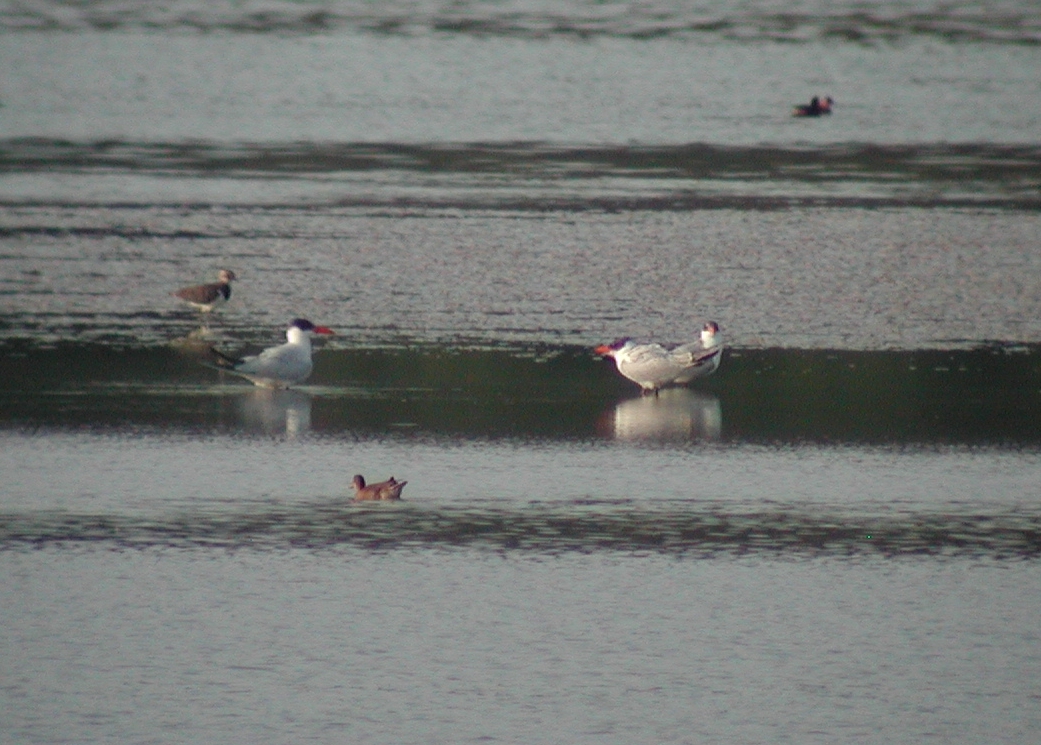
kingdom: Animalia
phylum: Chordata
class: Aves
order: Charadriiformes
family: Laridae
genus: Hydroprogne
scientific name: Hydroprogne caspia
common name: Caspian tern
